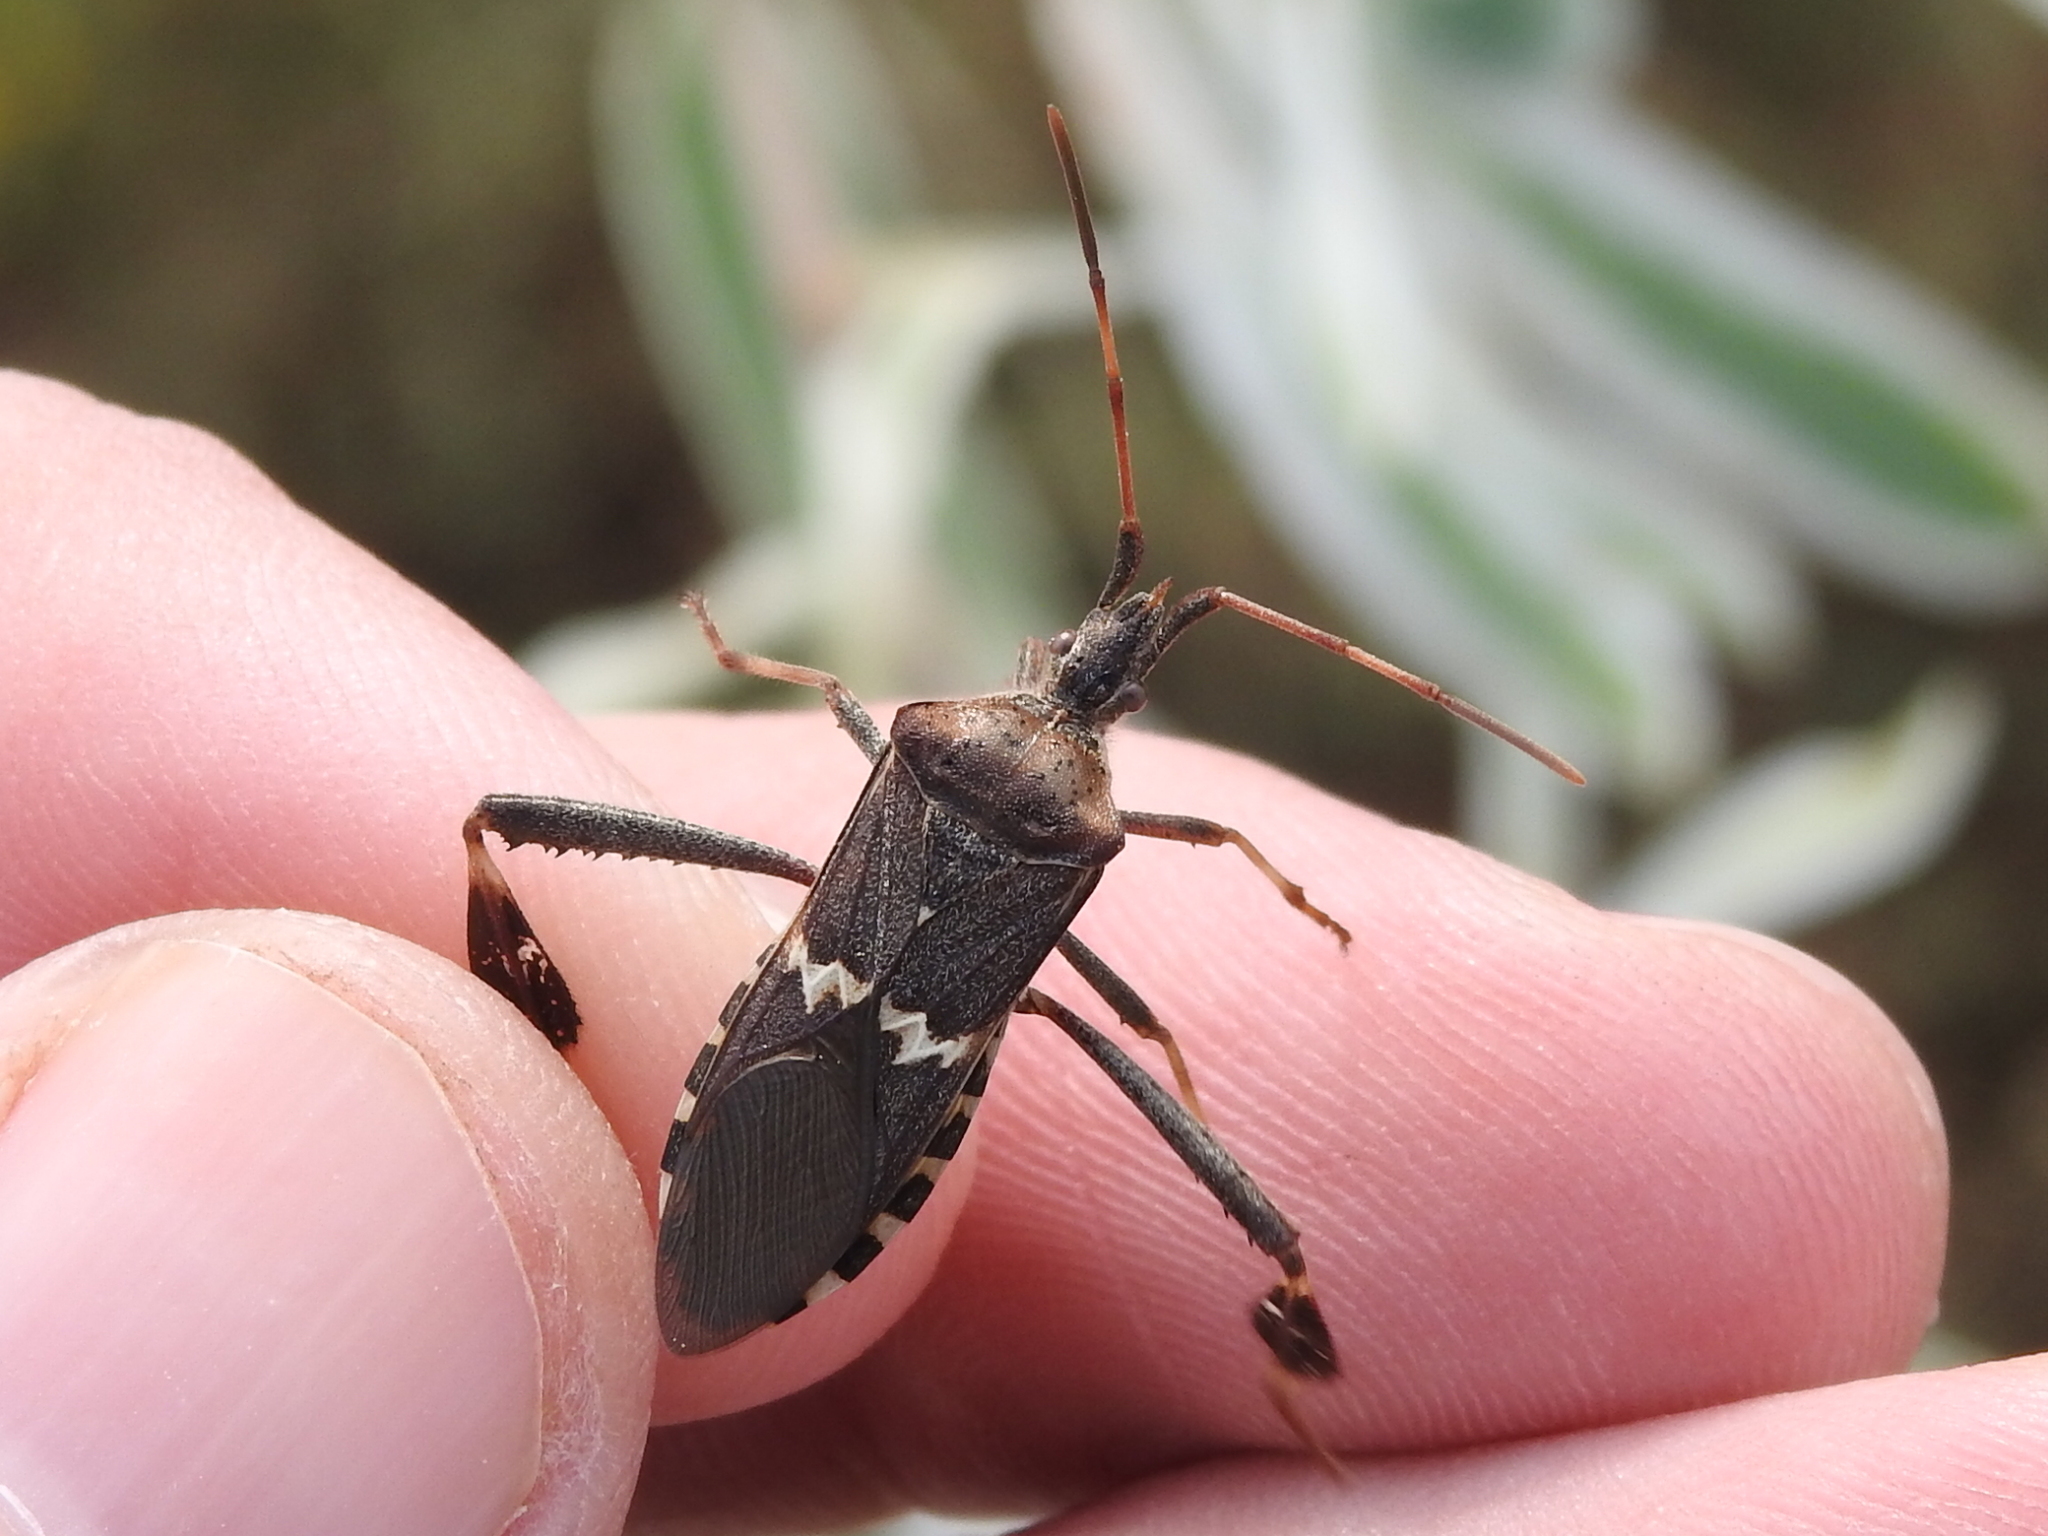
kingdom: Animalia
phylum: Arthropoda
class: Insecta
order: Hemiptera
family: Coreidae
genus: Leptoglossus
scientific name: Leptoglossus clypealis
